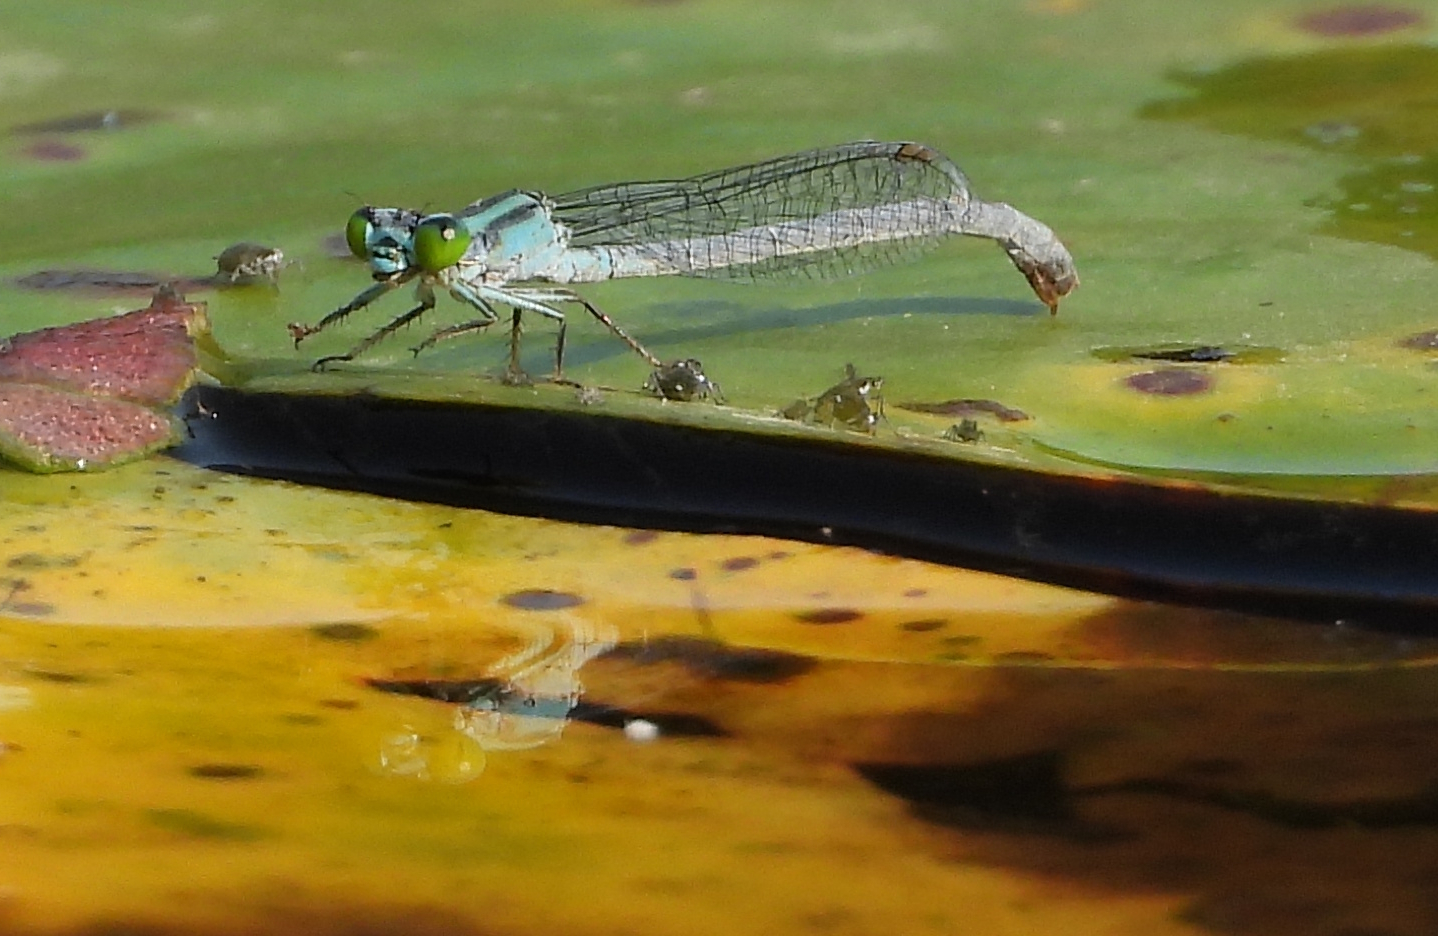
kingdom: Animalia
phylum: Arthropoda
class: Insecta
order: Odonata
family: Coenagrionidae
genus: Ischnura
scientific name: Ischnura kellicotti
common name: Lilypad forktail
